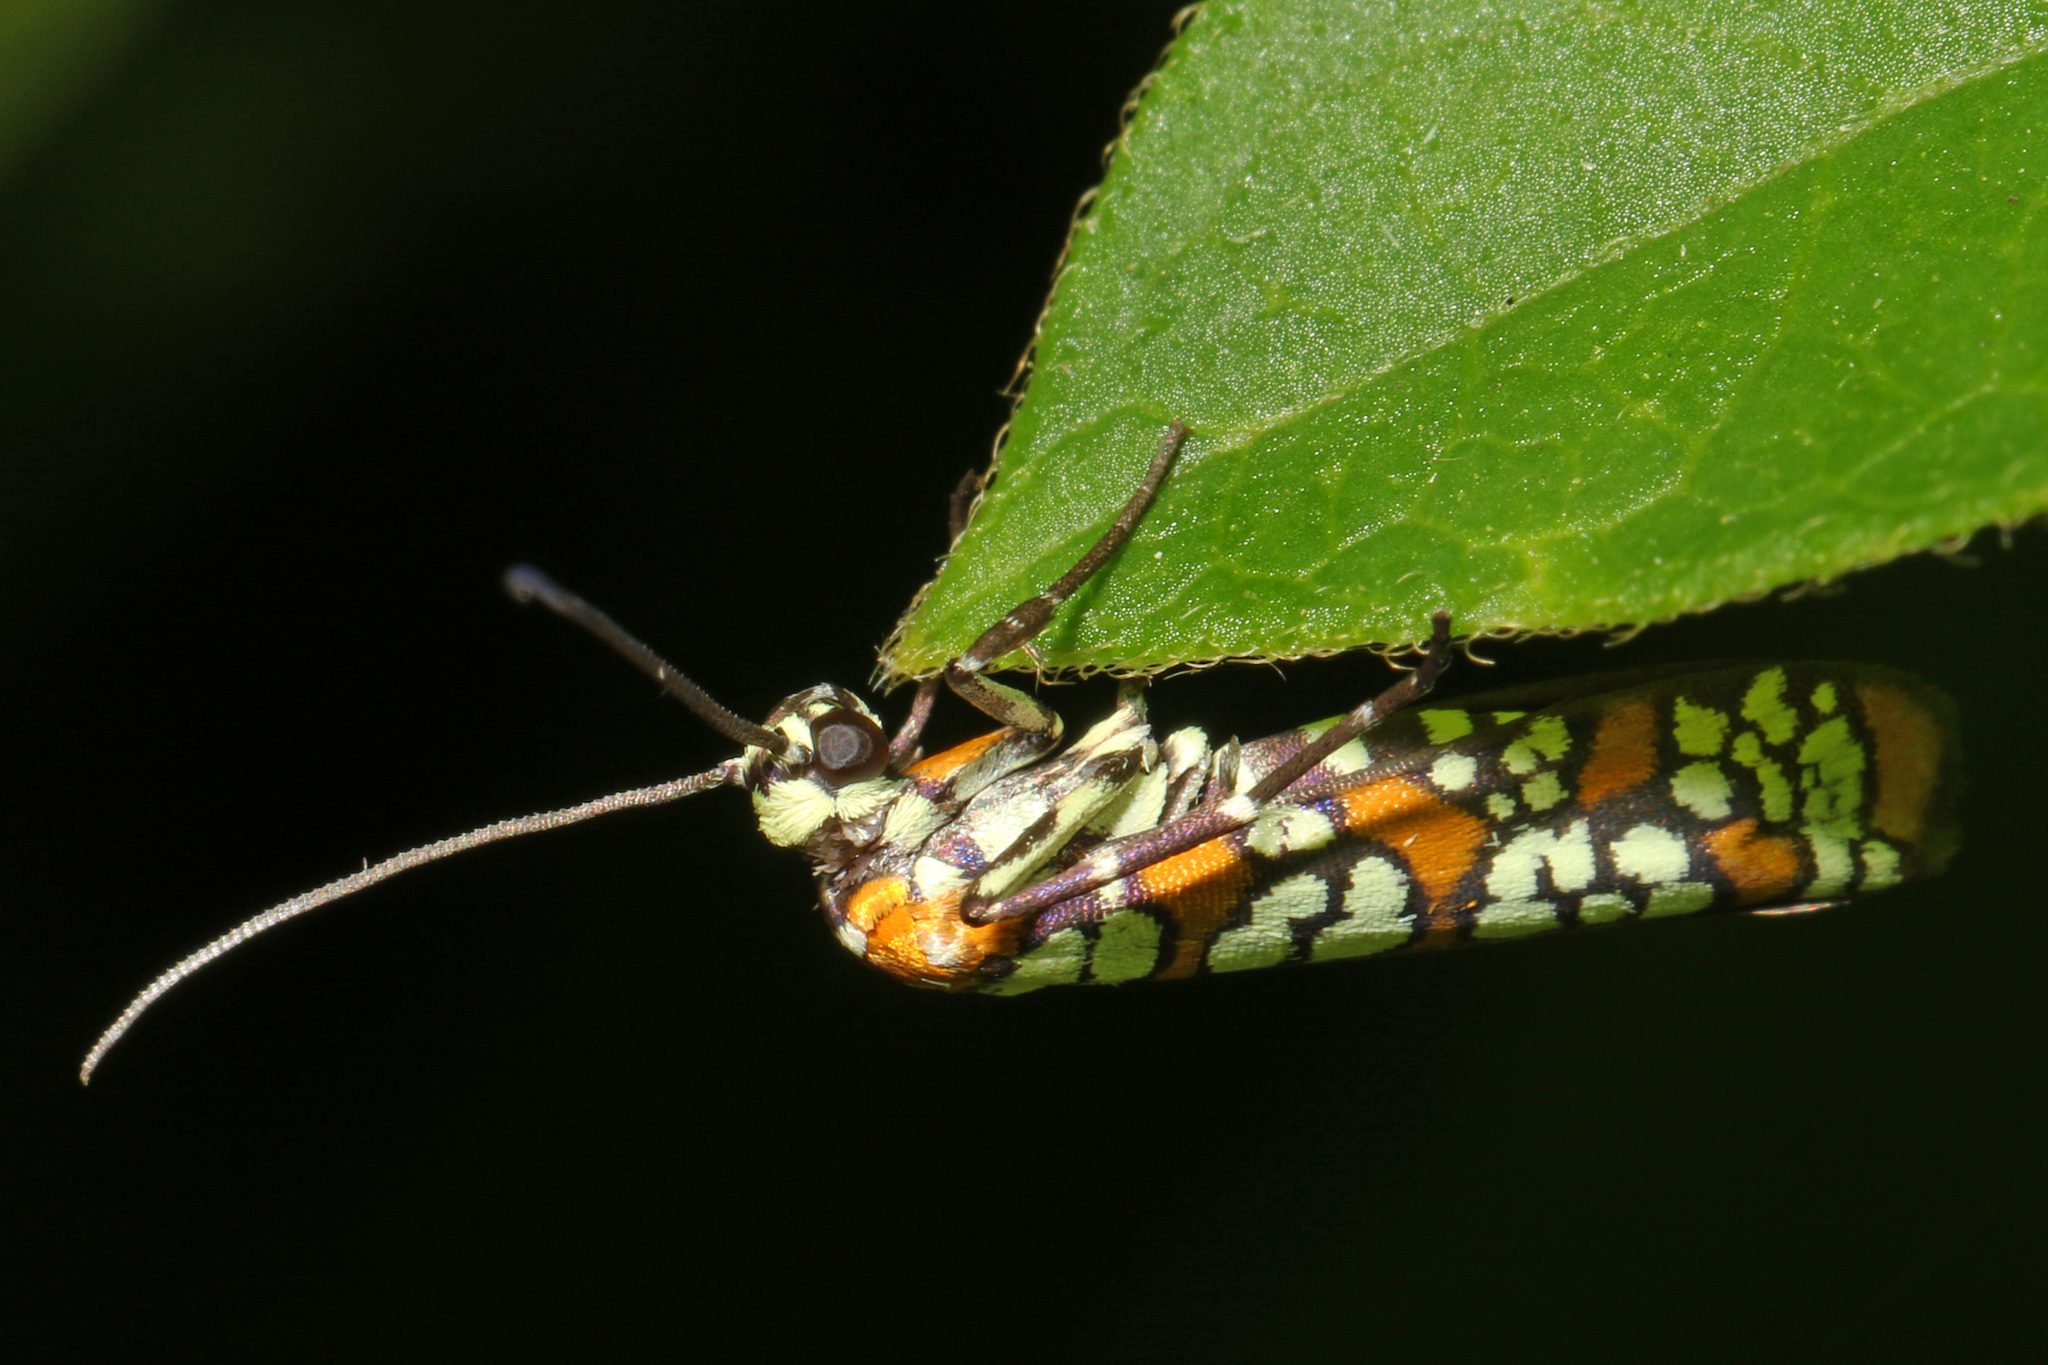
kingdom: Animalia
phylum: Arthropoda
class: Insecta
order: Lepidoptera
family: Attevidae
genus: Atteva
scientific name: Atteva punctella
